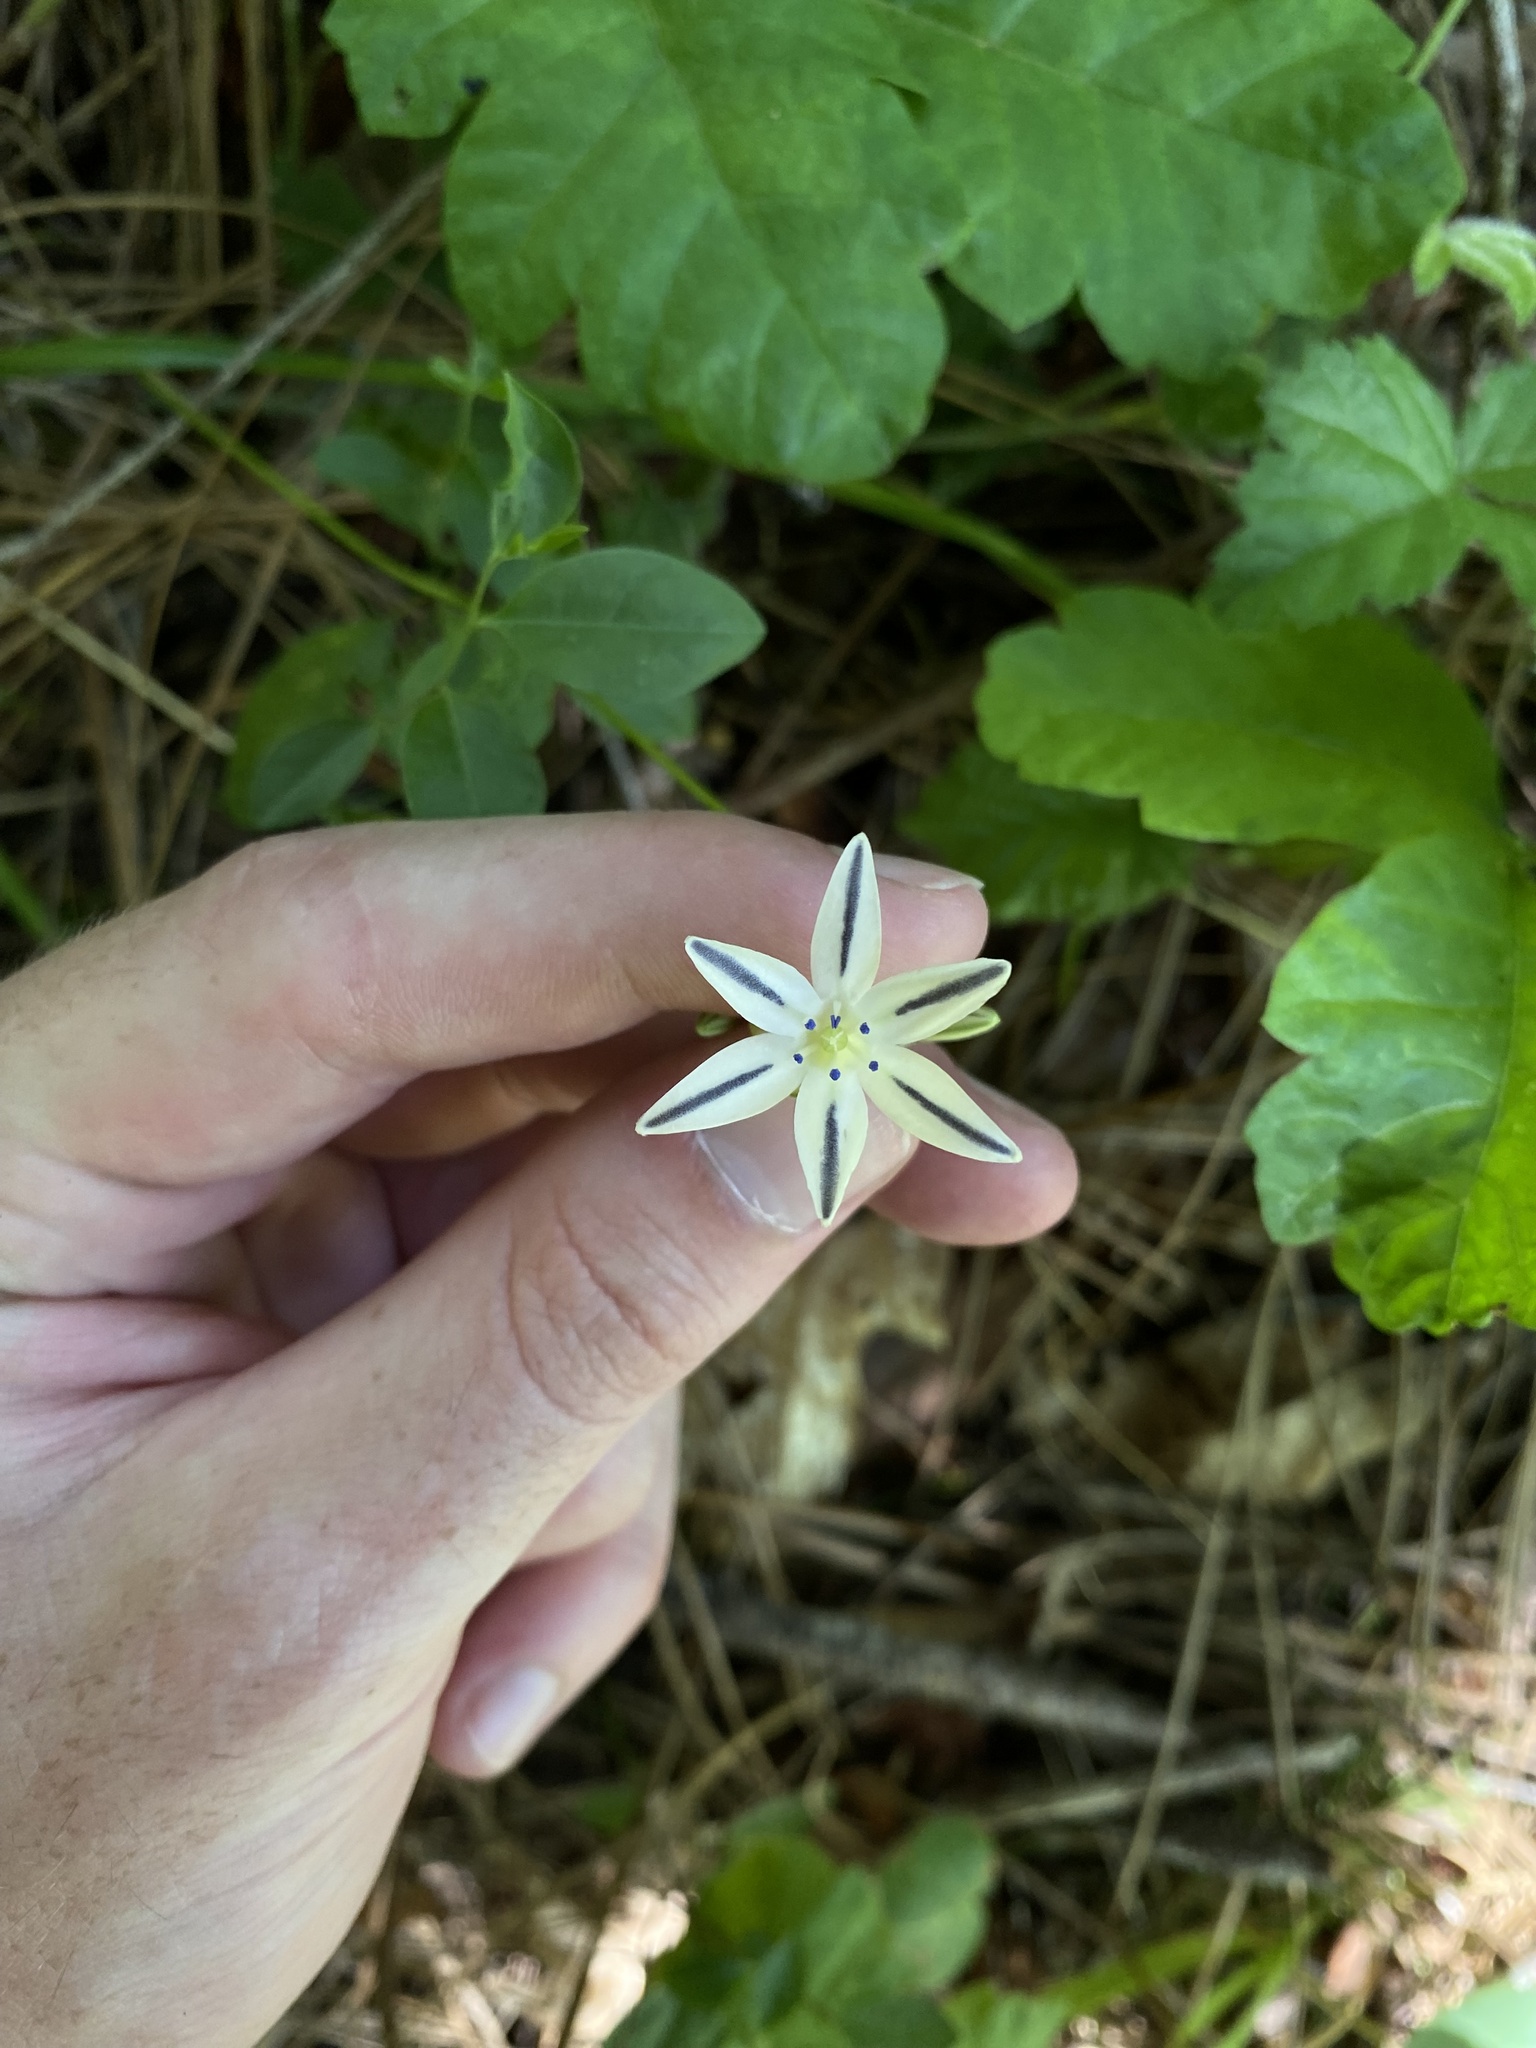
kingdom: Plantae
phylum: Tracheophyta
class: Liliopsida
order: Asparagales
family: Asparagaceae
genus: Triteleia
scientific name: Triteleia hendersonii
